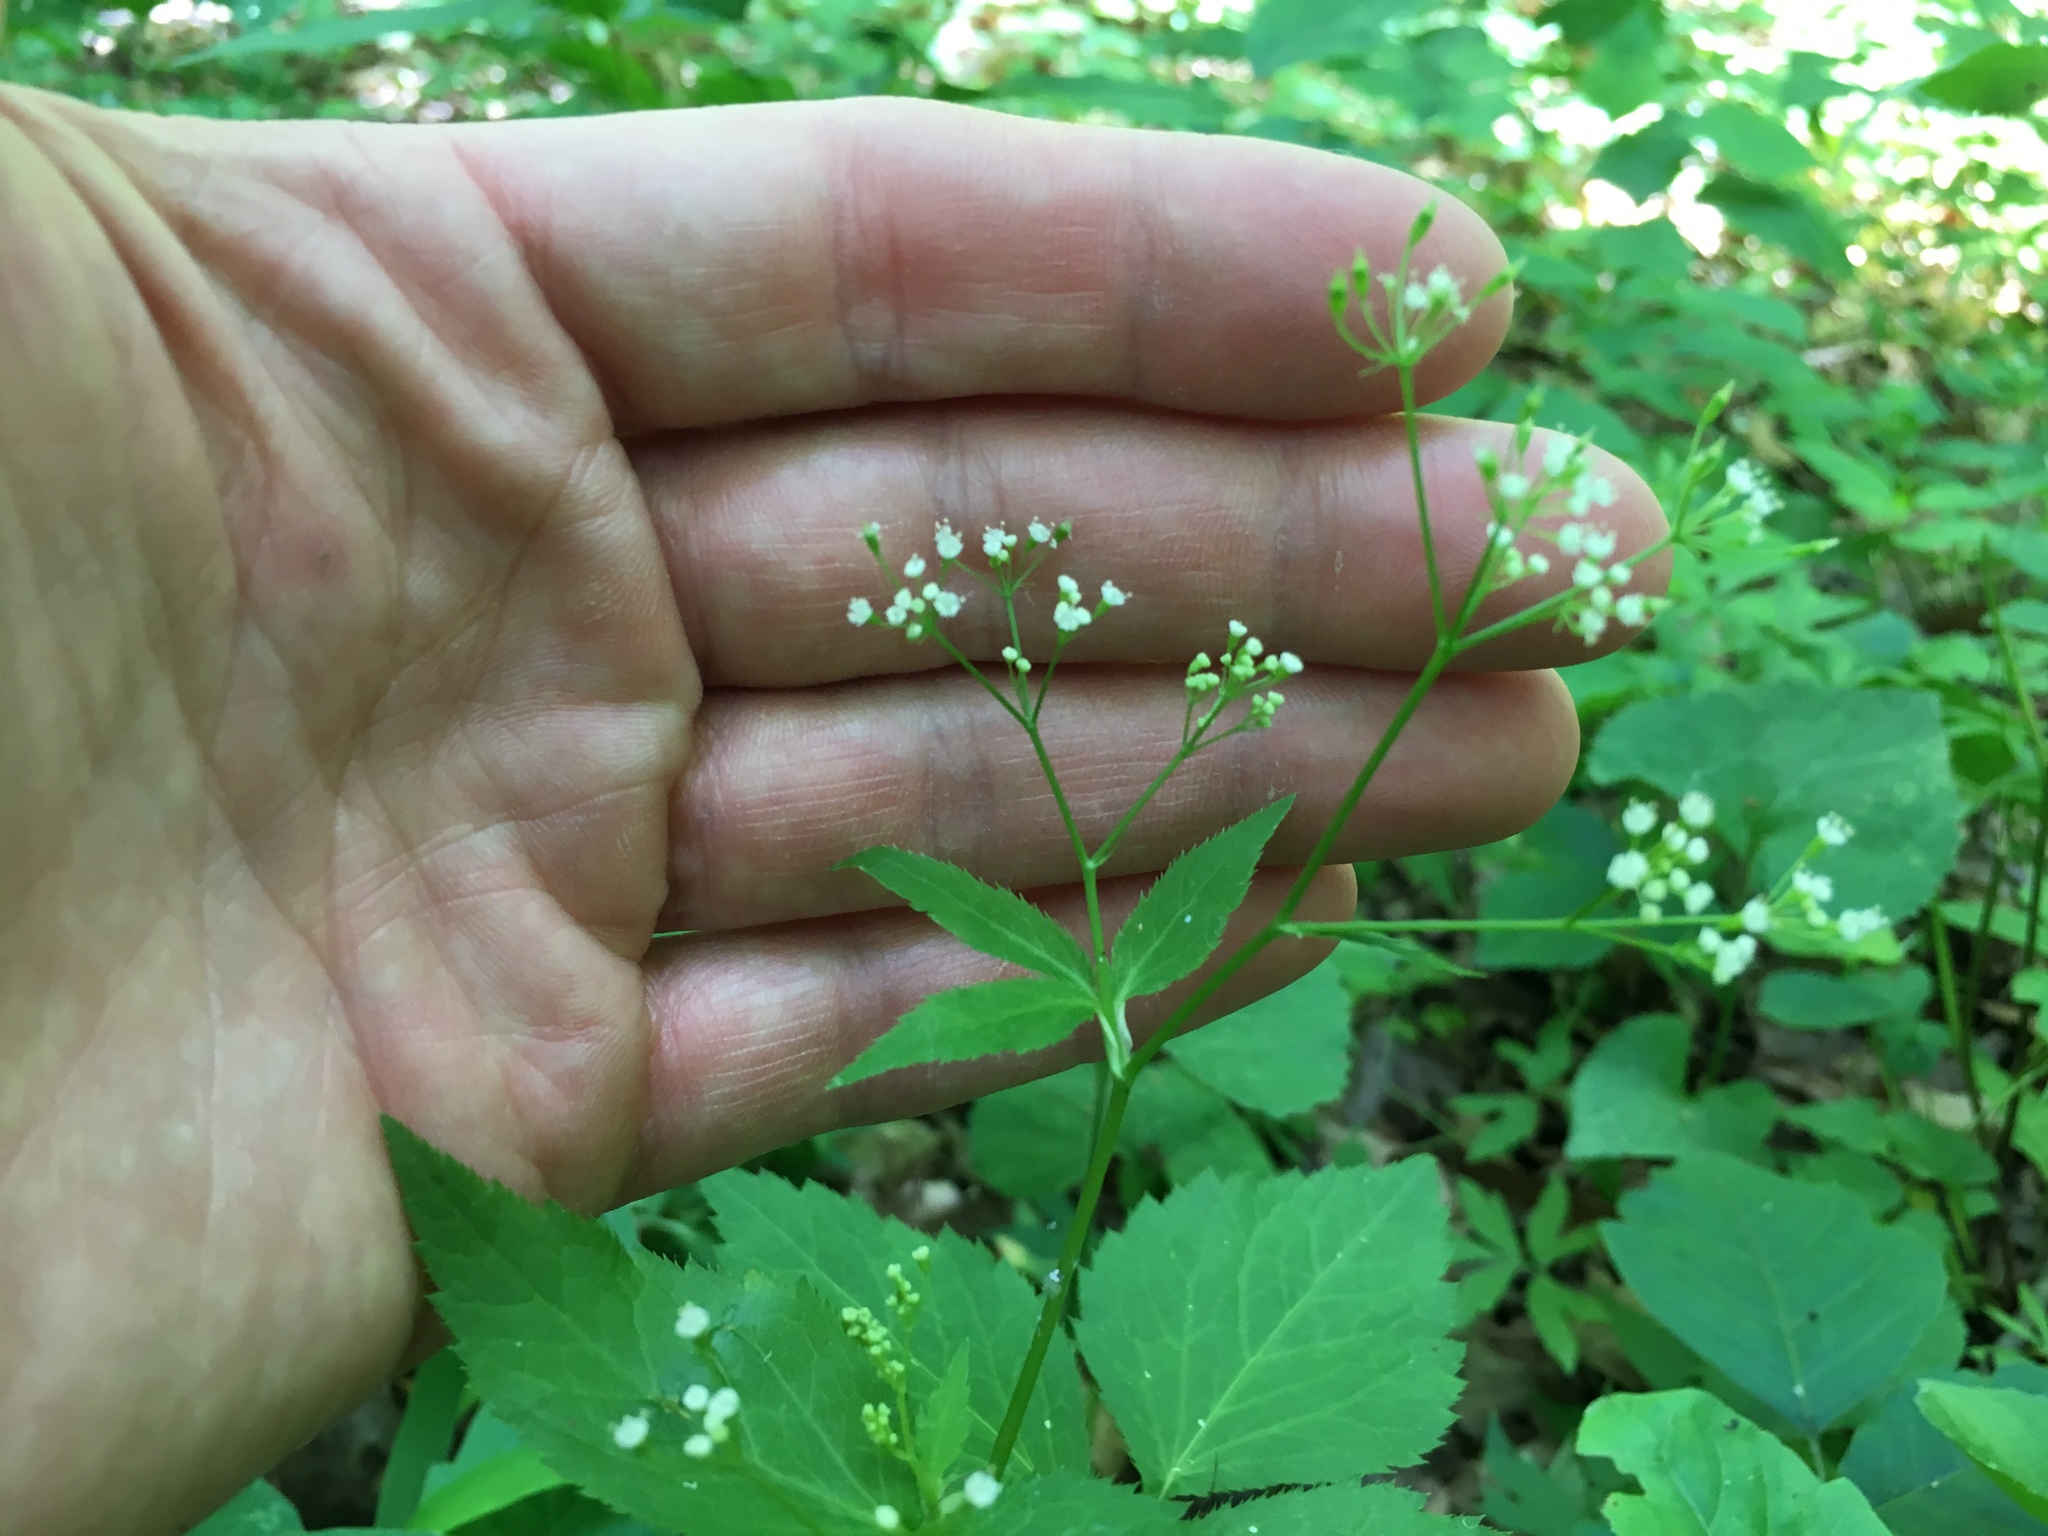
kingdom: Plantae
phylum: Tracheophyta
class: Magnoliopsida
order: Apiales
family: Apiaceae
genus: Cryptotaenia
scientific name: Cryptotaenia canadensis
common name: Honewort
